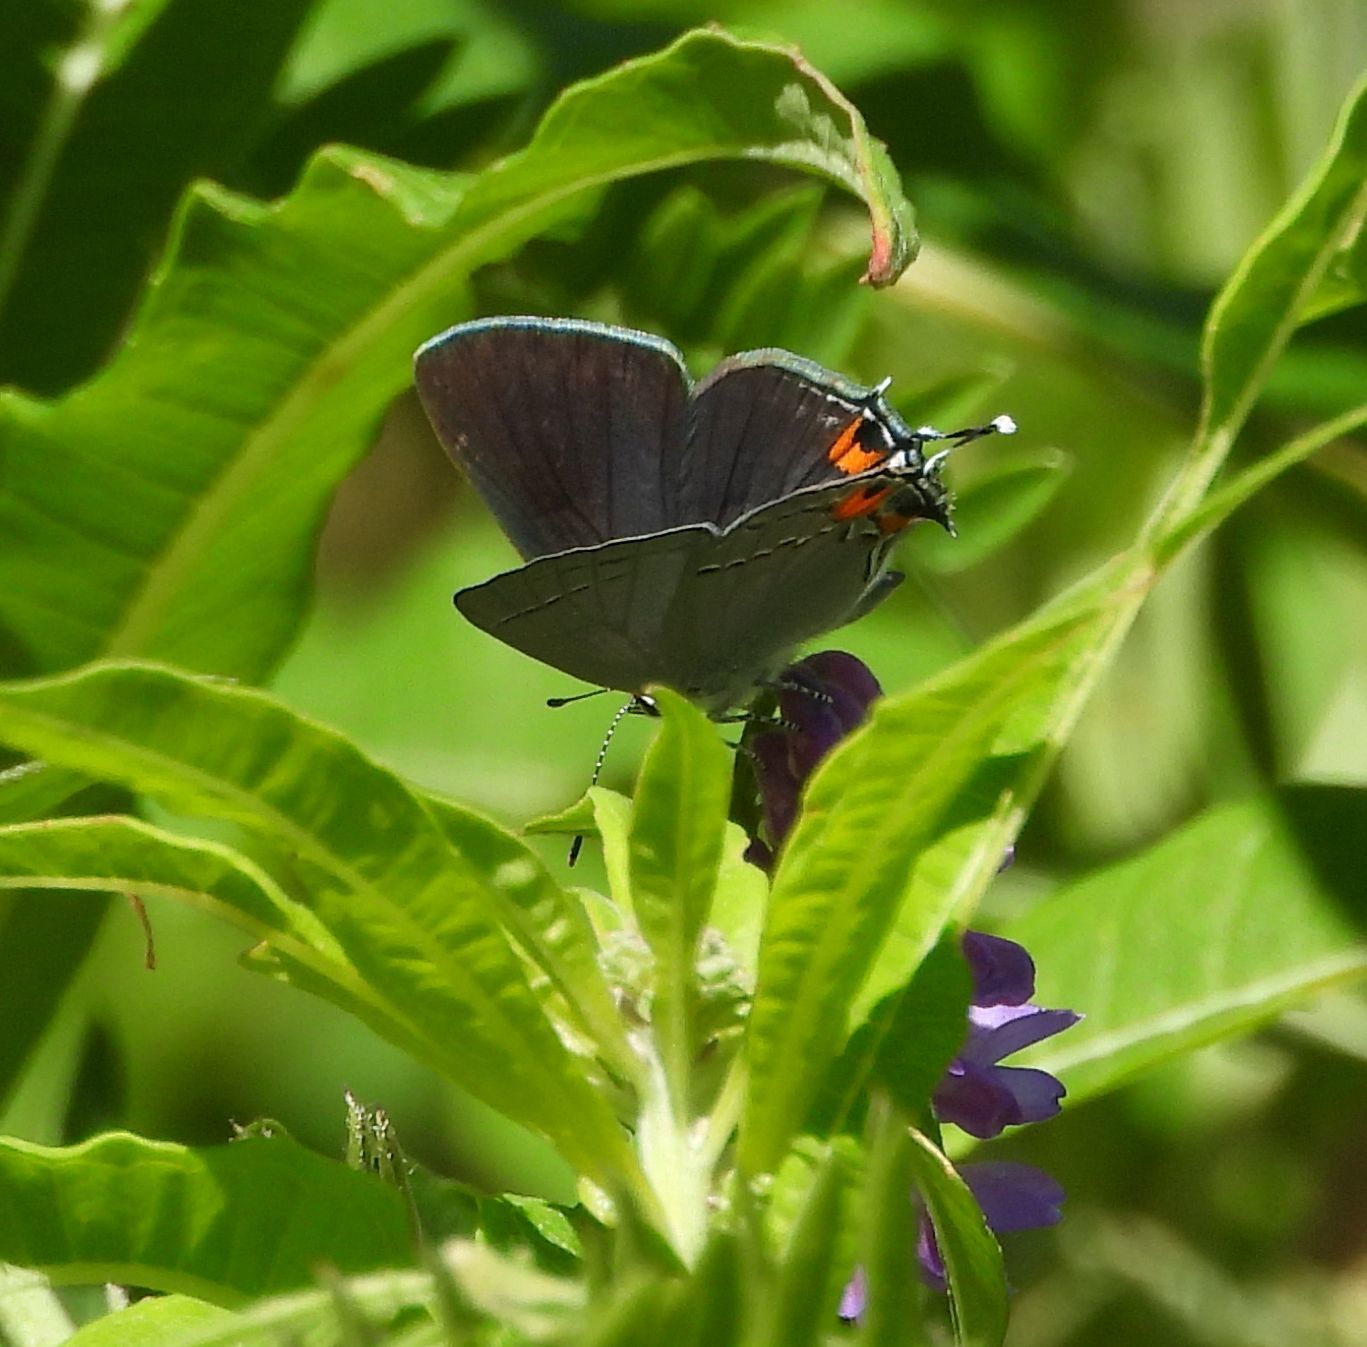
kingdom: Animalia
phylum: Arthropoda
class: Insecta
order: Lepidoptera
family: Lycaenidae
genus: Strymon
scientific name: Strymon melinus
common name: Gray hairstreak
